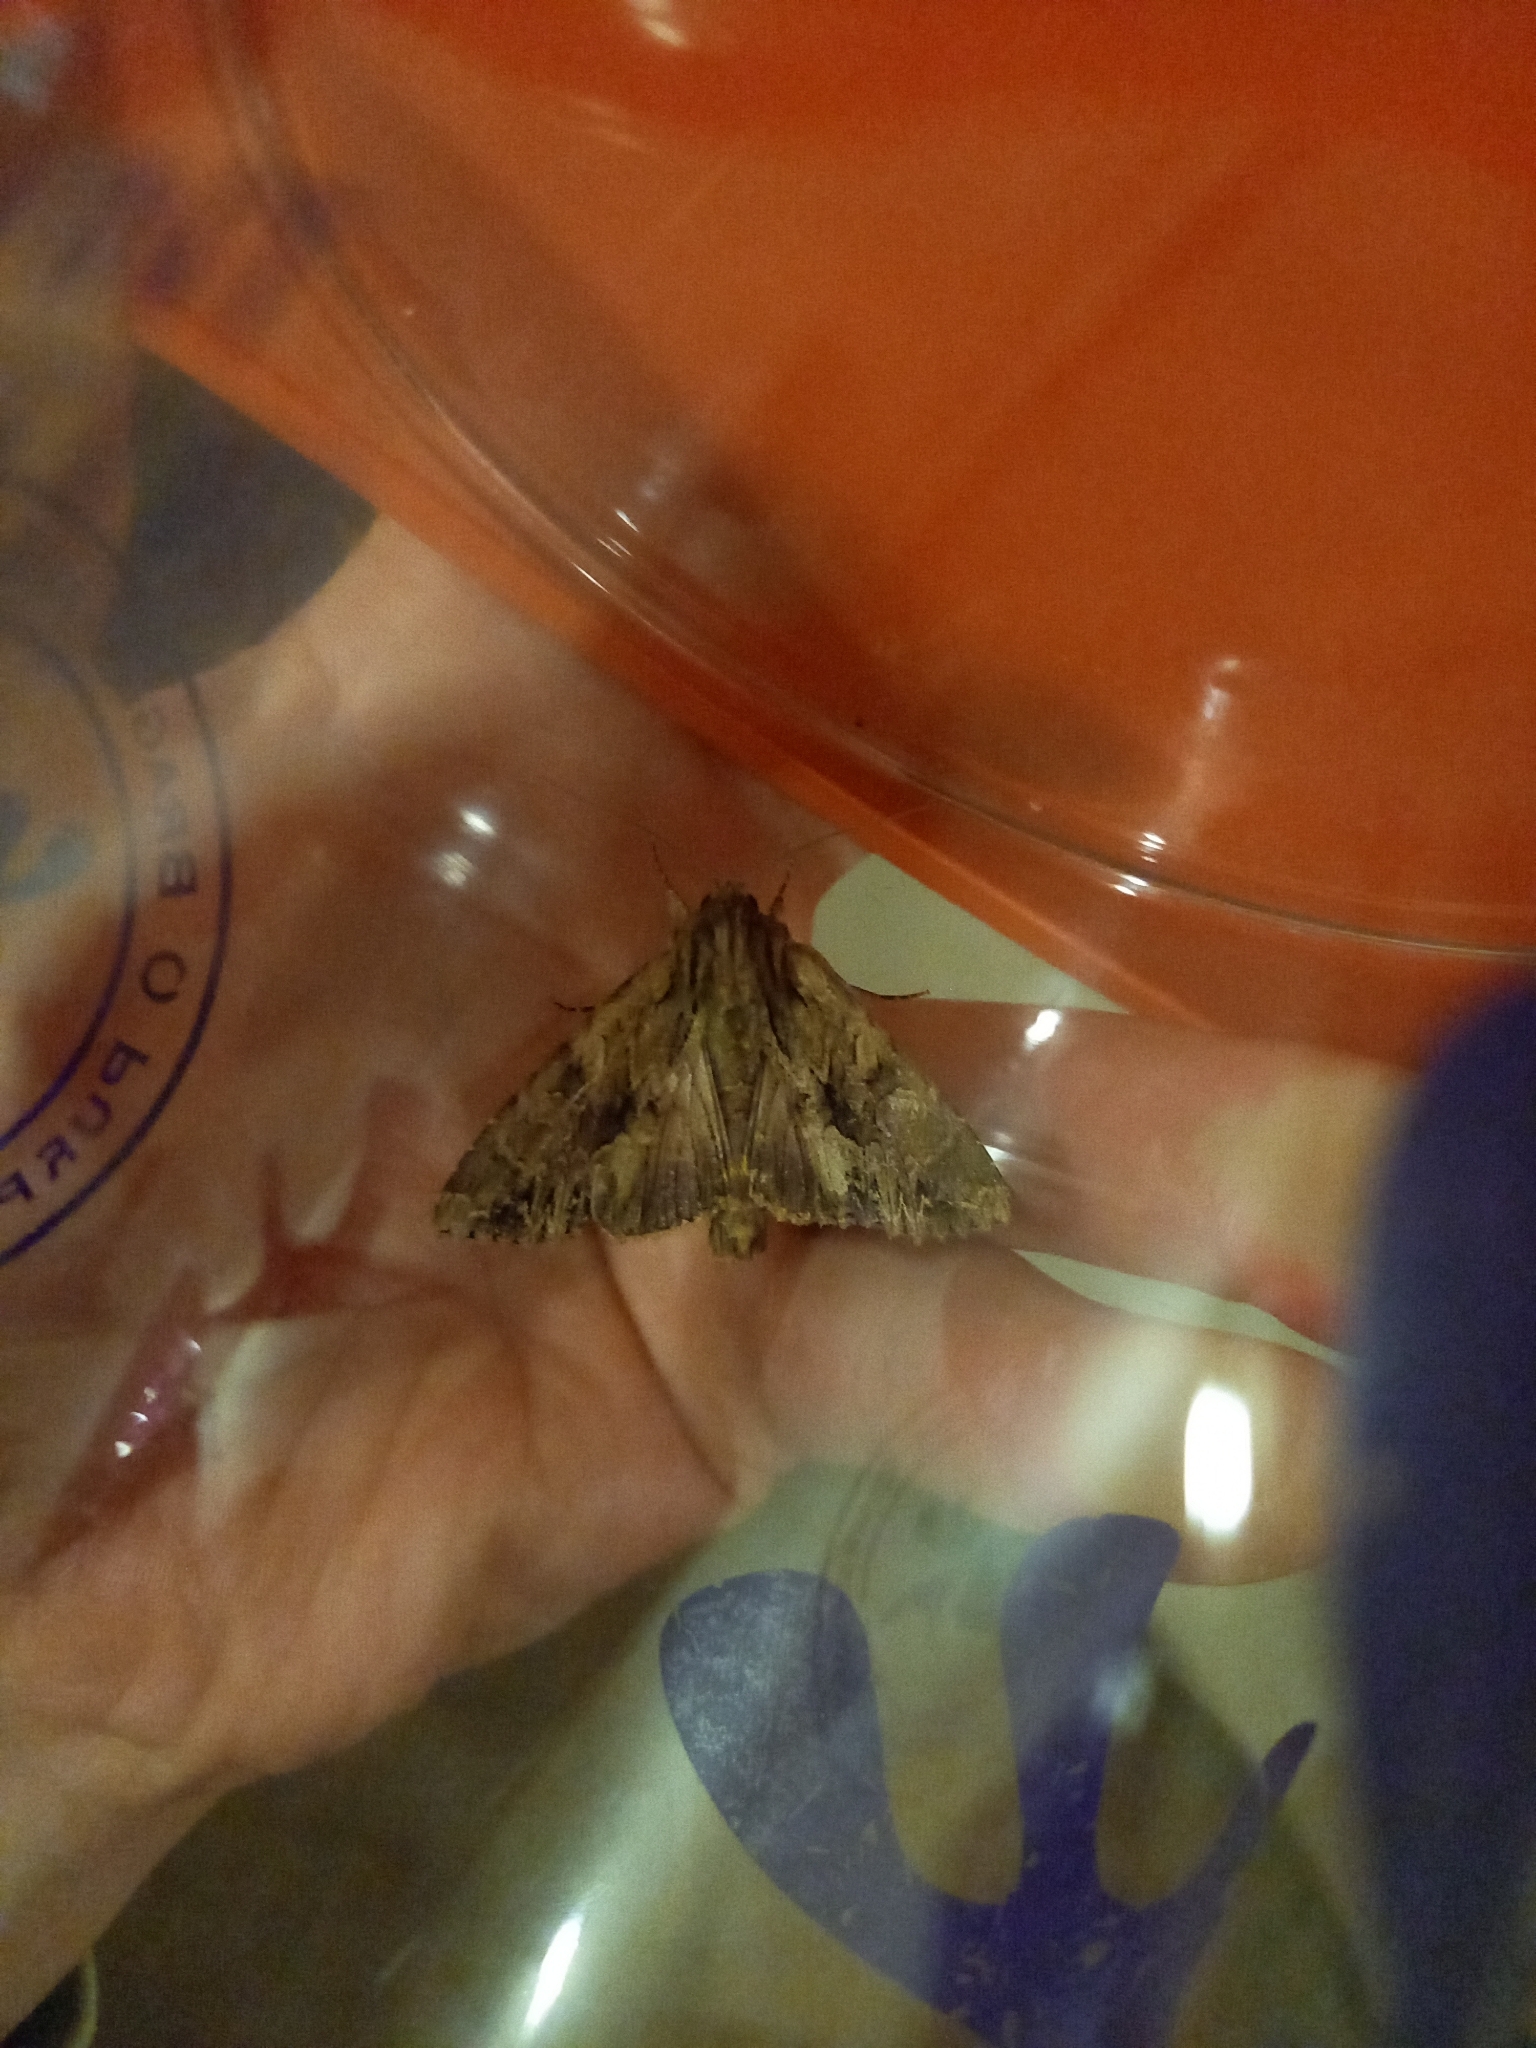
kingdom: Animalia
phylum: Arthropoda
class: Insecta
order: Lepidoptera
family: Noctuidae
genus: Apamea
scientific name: Apamea monoglypha
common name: Dark arches
